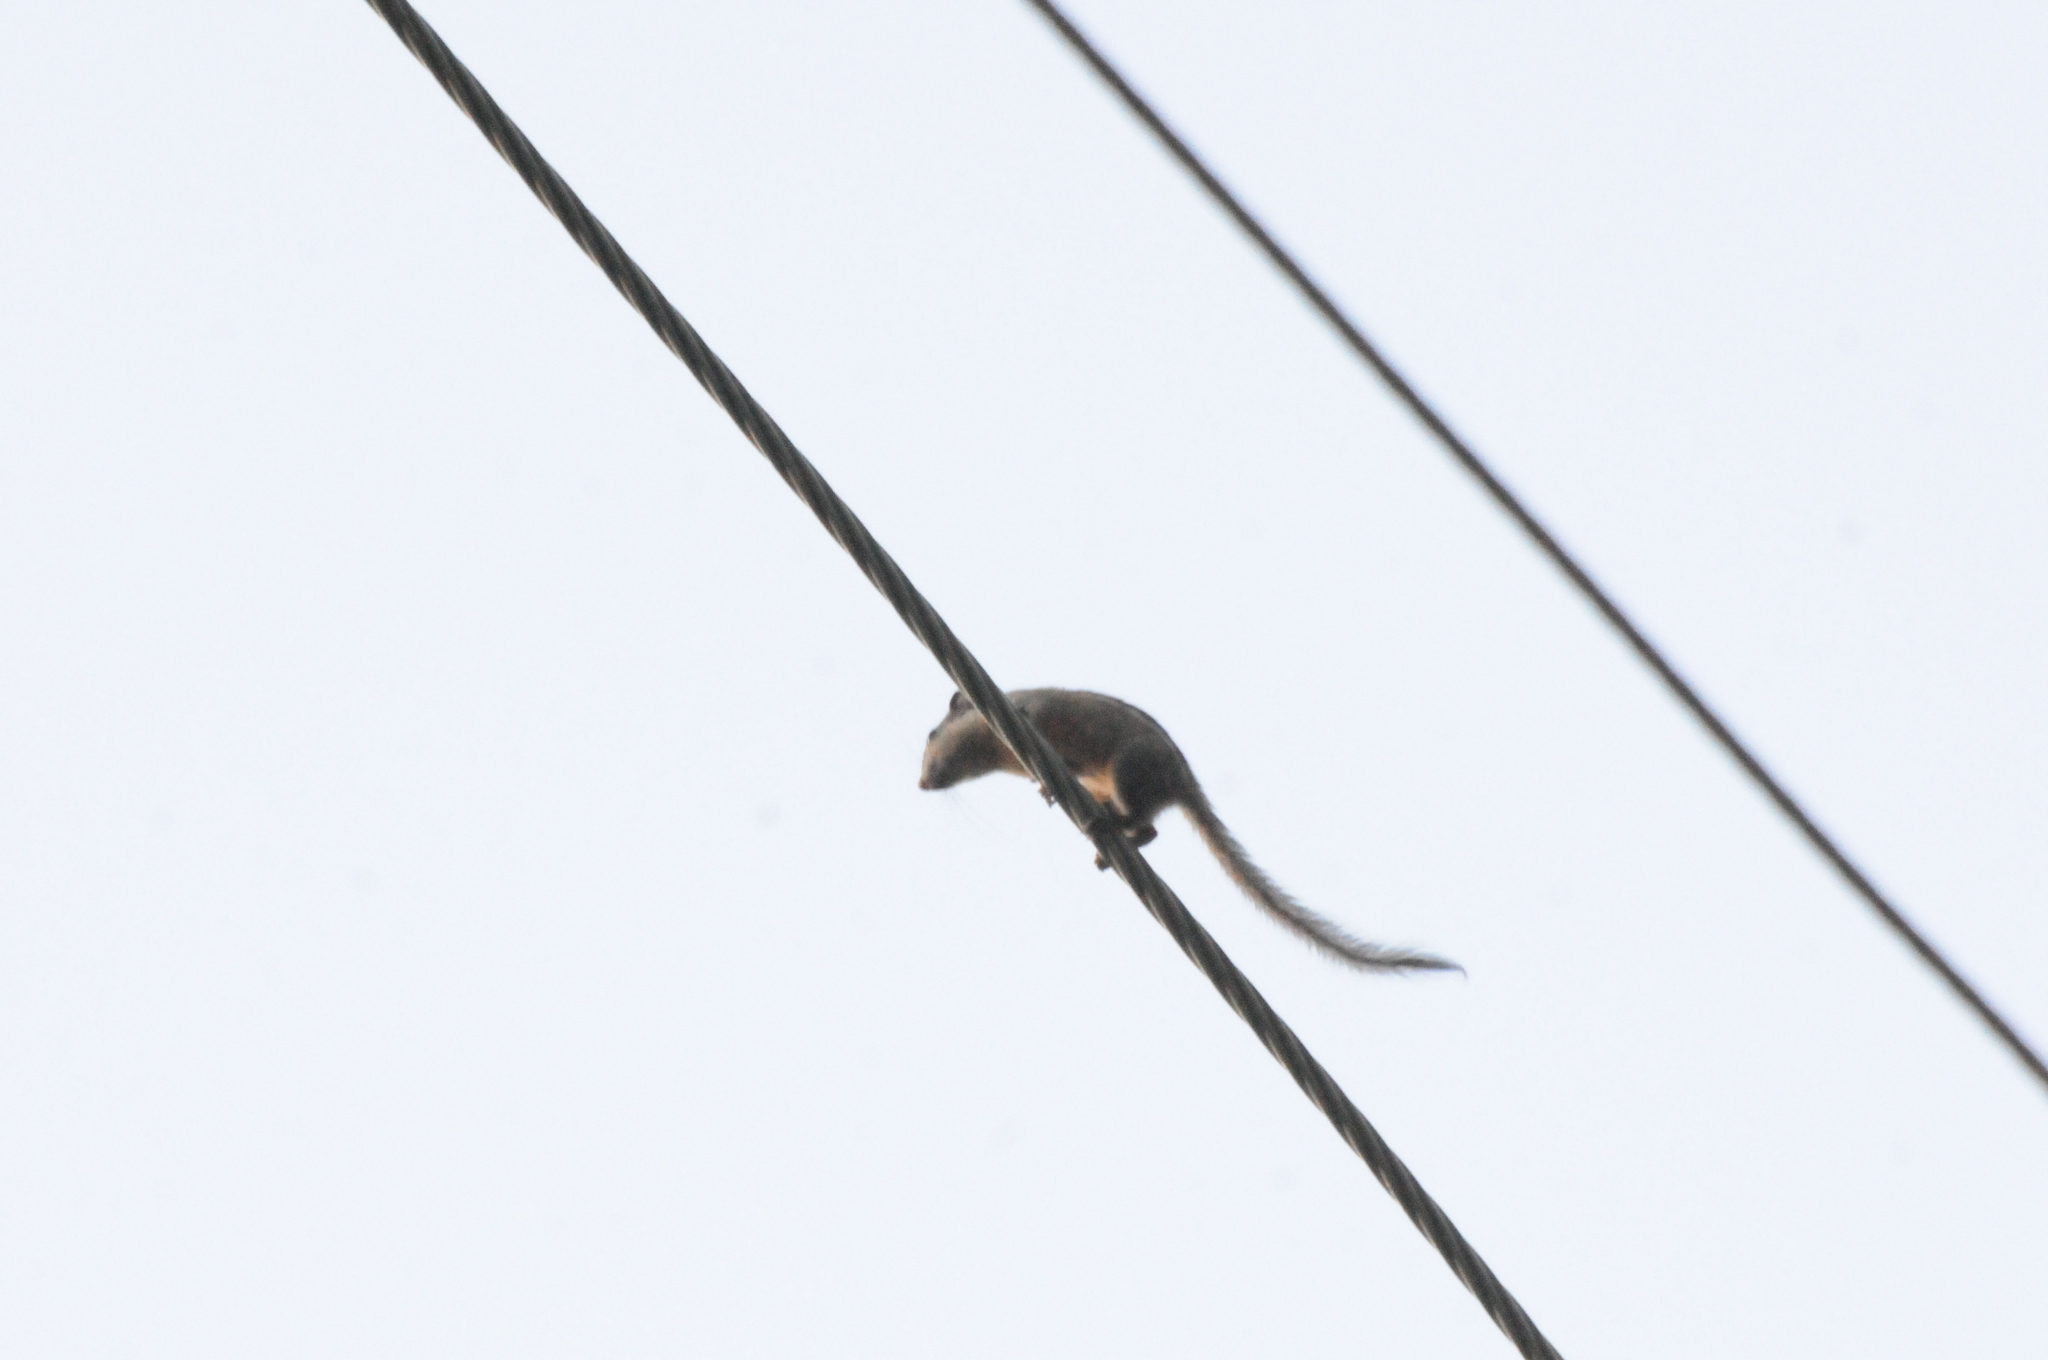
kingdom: Animalia
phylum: Chordata
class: Mammalia
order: Rodentia
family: Sciuridae
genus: Tamiops
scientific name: Tamiops rodolphii
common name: Cambodian striped squirrel
